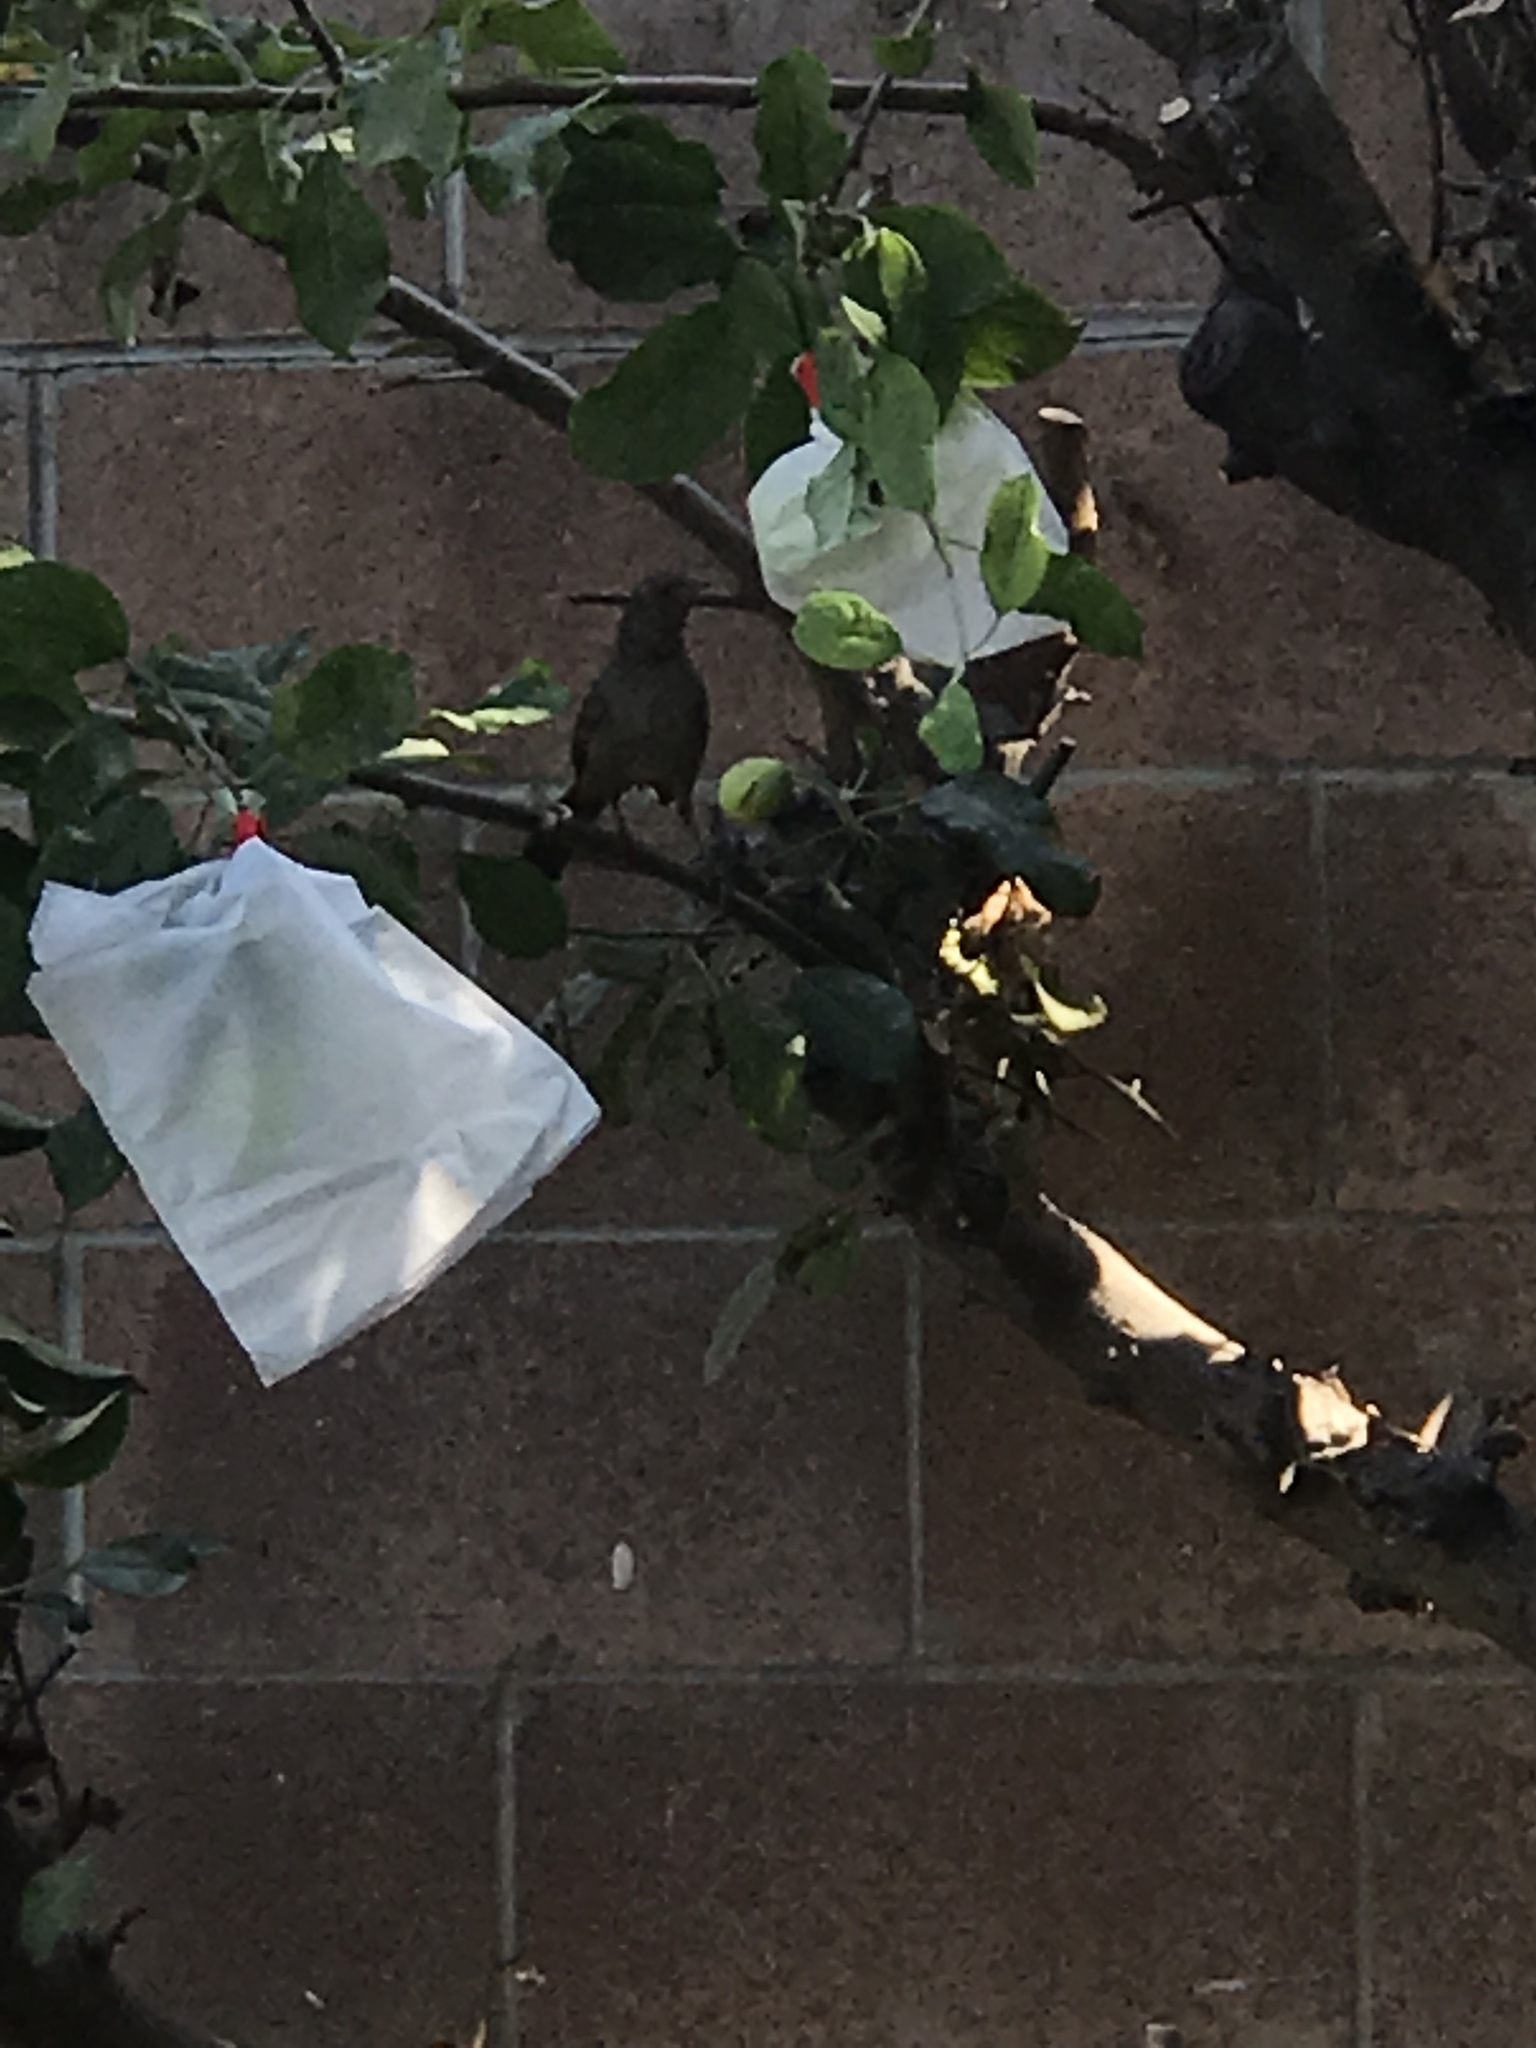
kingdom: Animalia
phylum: Chordata
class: Aves
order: Passeriformes
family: Passerellidae
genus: Melozone
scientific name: Melozone crissalis
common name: California towhee
